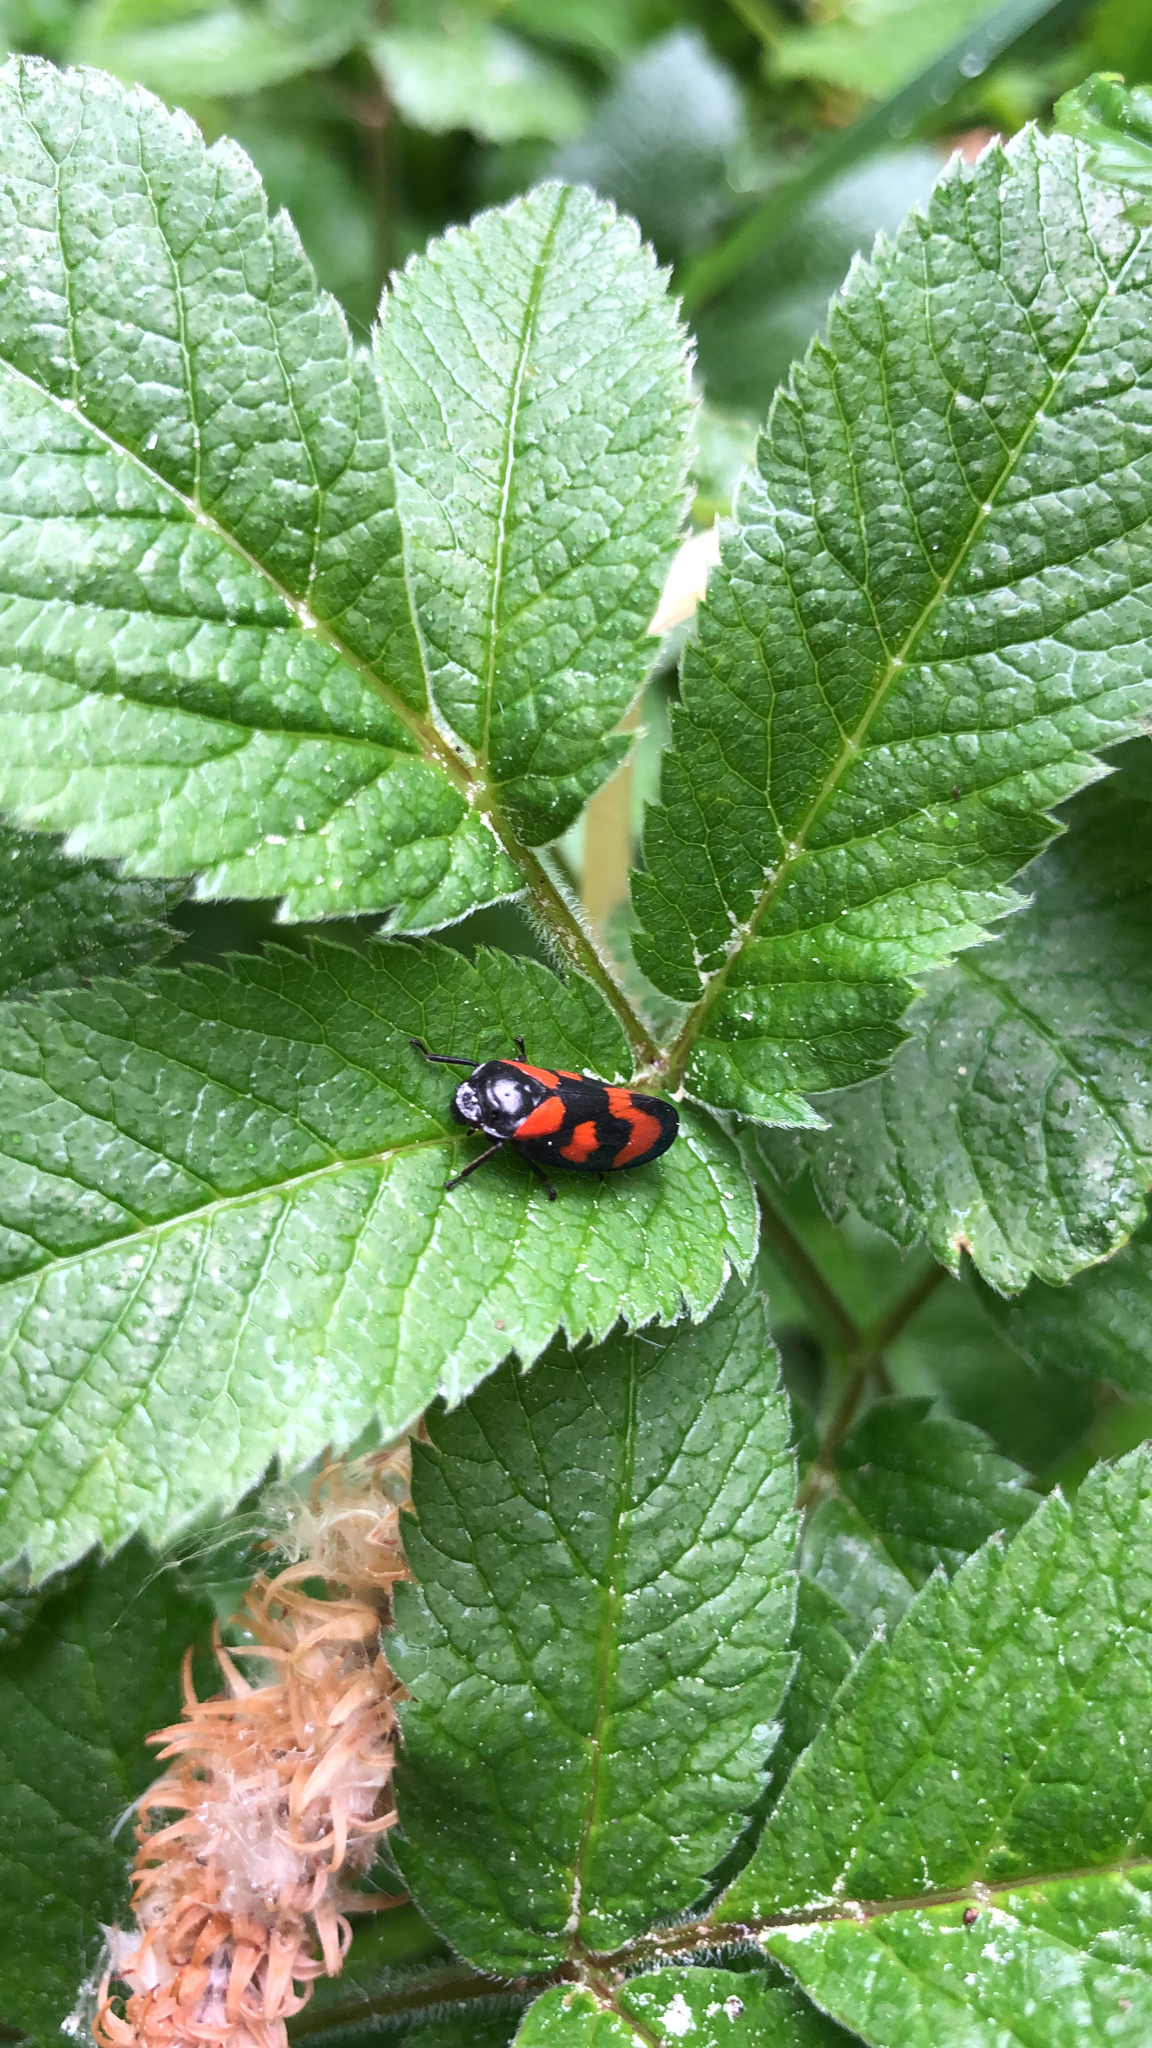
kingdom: Animalia
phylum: Arthropoda
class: Insecta
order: Hemiptera
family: Cercopidae
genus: Cercopis
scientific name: Cercopis vulnerata
